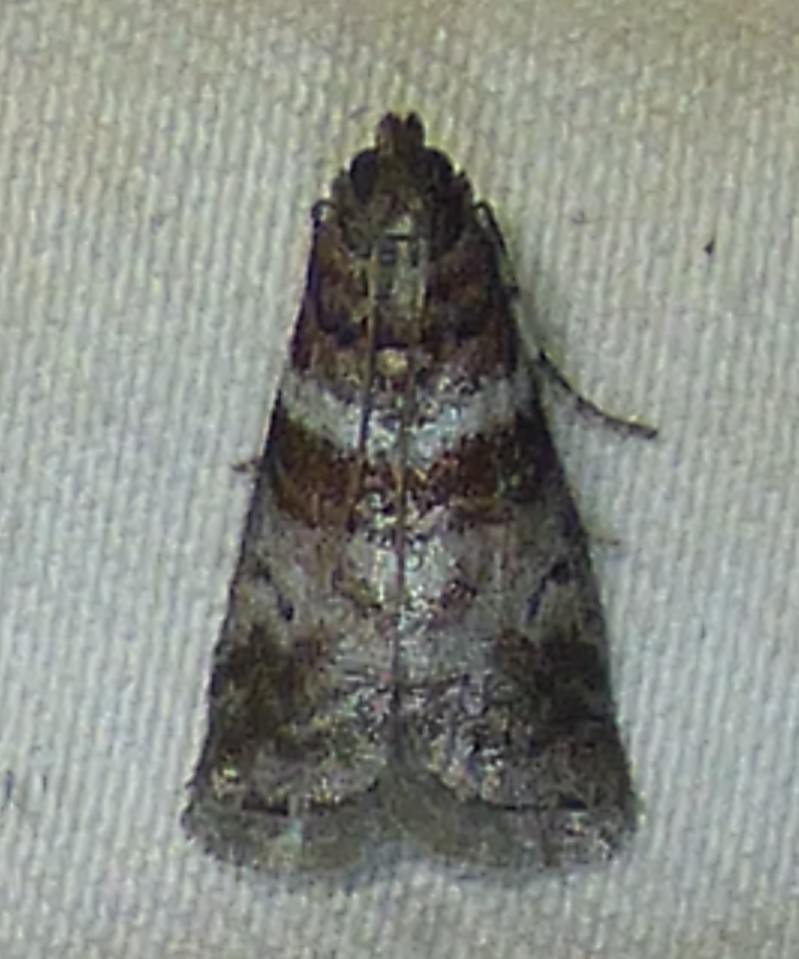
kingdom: Animalia
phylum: Arthropoda
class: Insecta
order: Lepidoptera
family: Pyralidae
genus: Sciota
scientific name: Sciota uvinella
